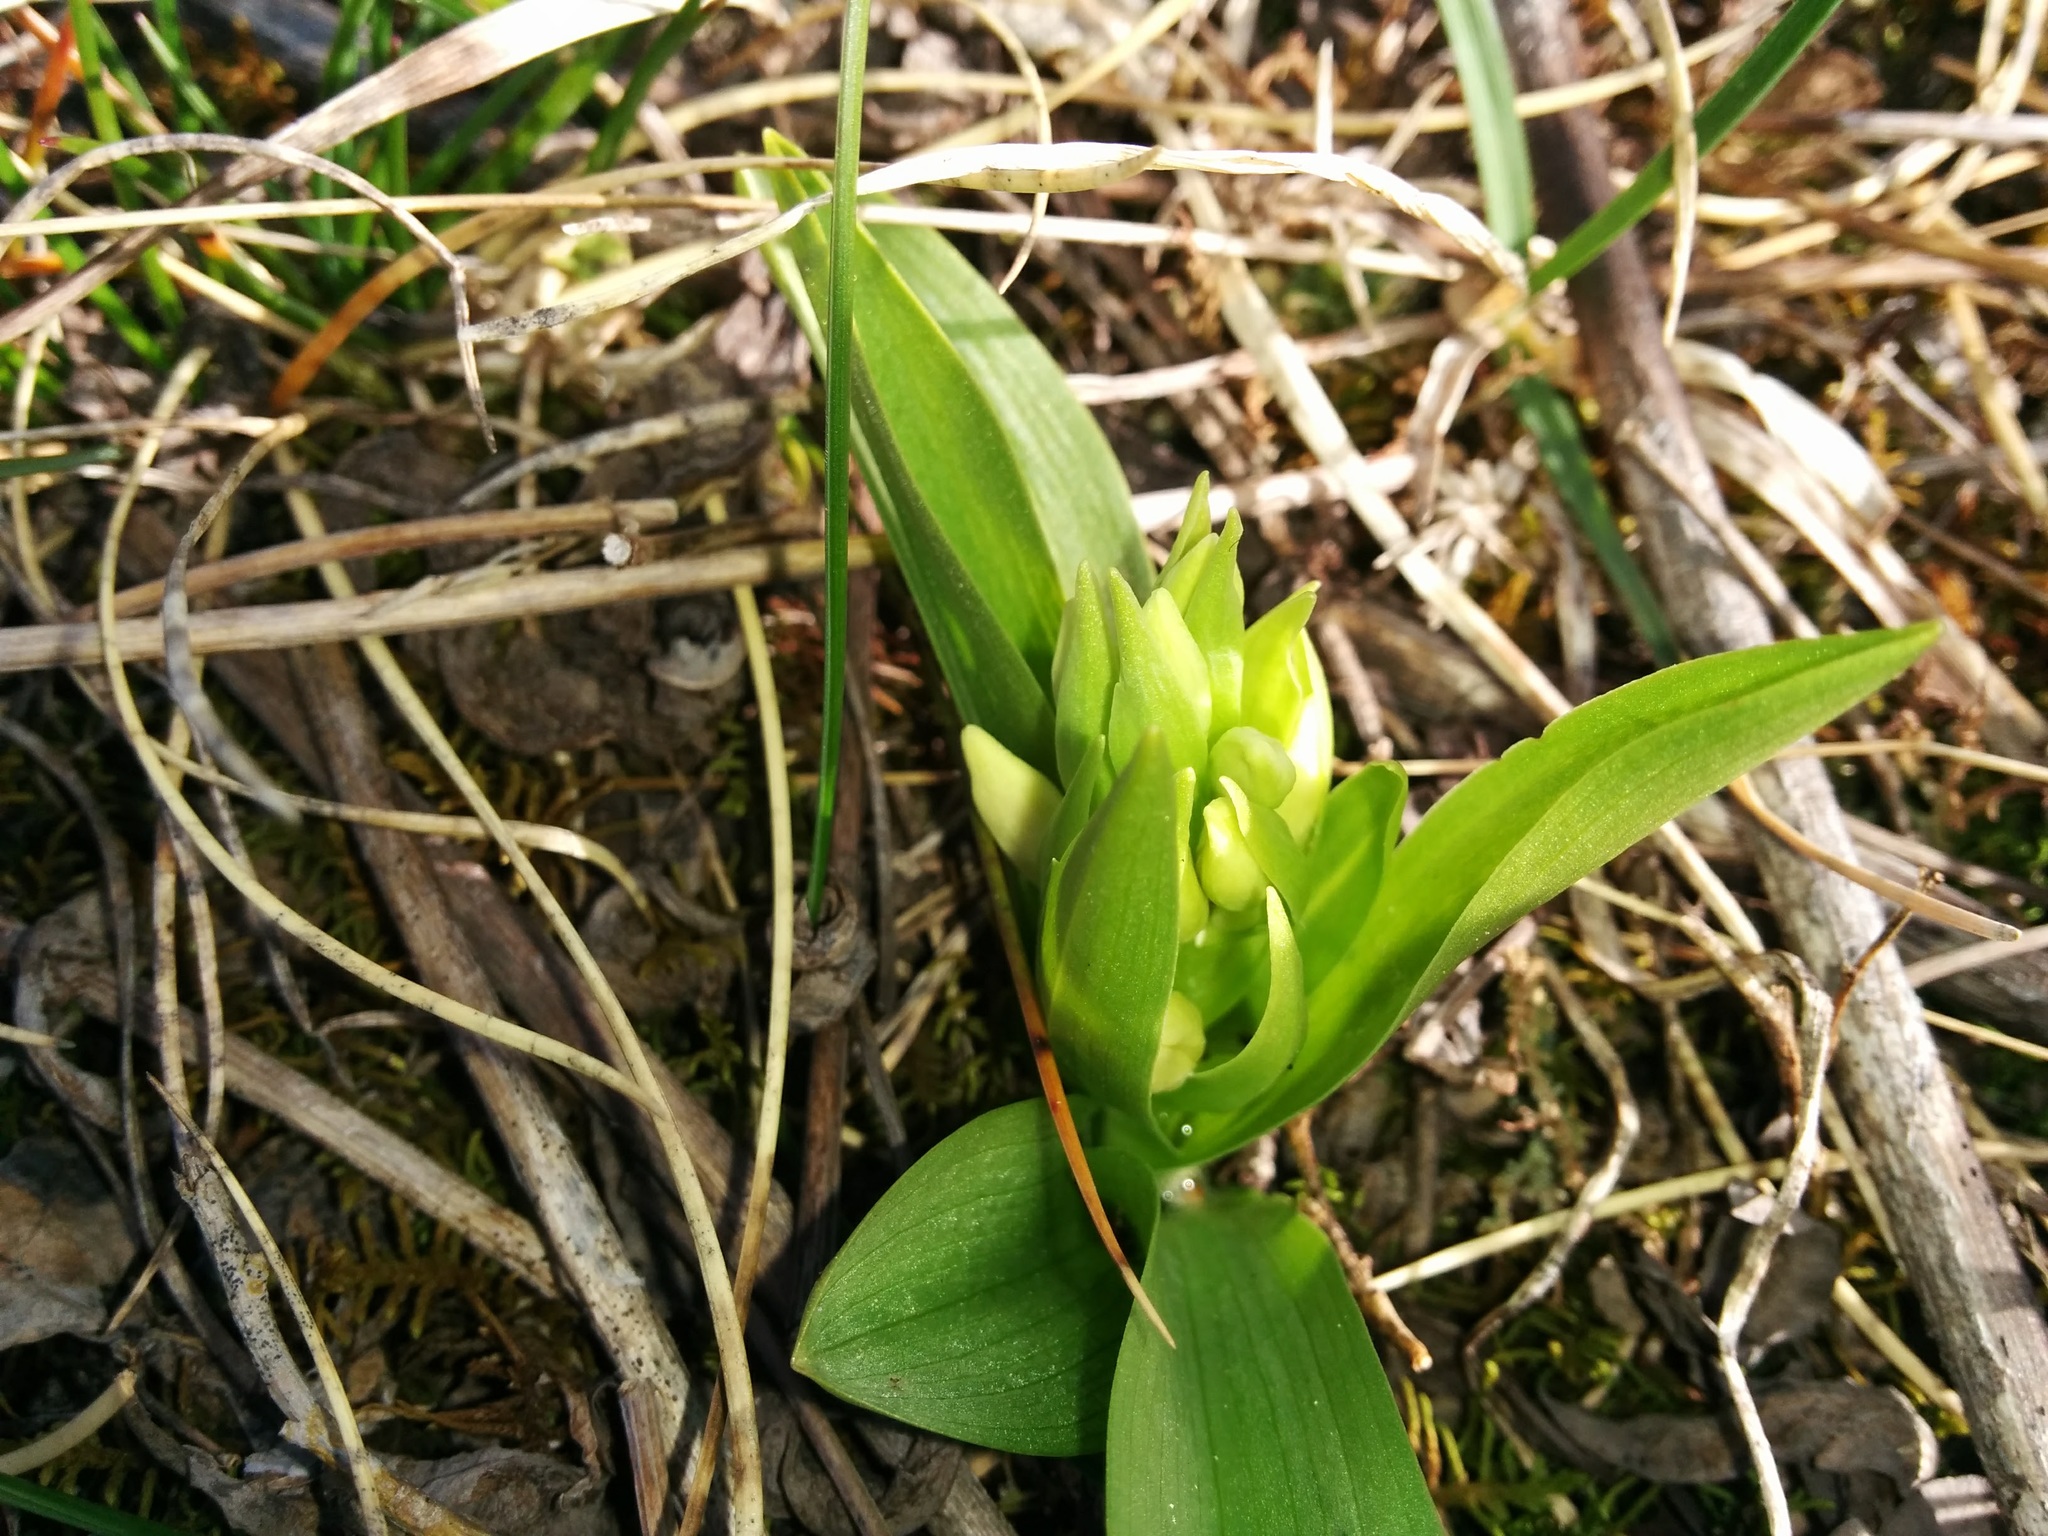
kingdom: Plantae
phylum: Tracheophyta
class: Liliopsida
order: Asparagales
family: Orchidaceae
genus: Dactylorhiza
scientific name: Dactylorhiza sambucina
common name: Elder-flowered orchid
